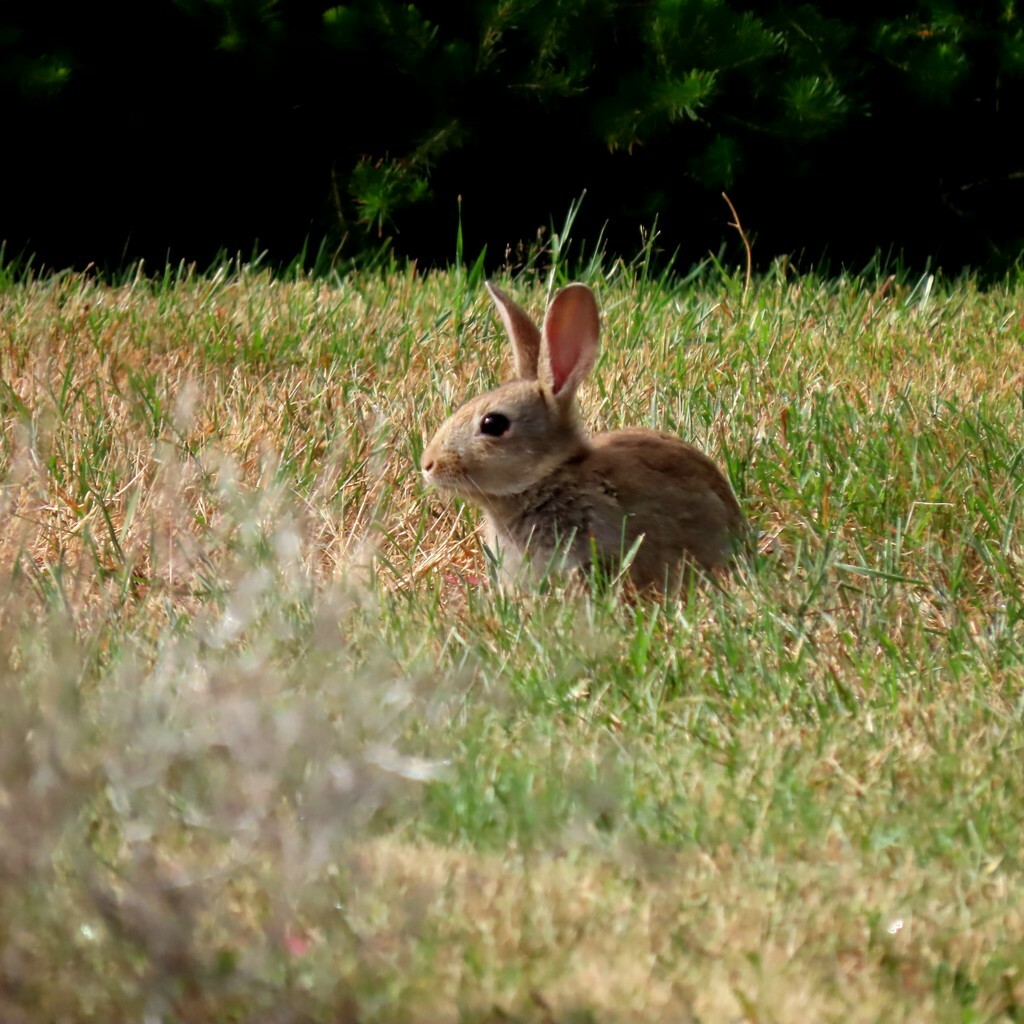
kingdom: Animalia
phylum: Chordata
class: Mammalia
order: Lagomorpha
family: Leporidae
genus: Oryctolagus
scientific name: Oryctolagus cuniculus
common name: European rabbit
